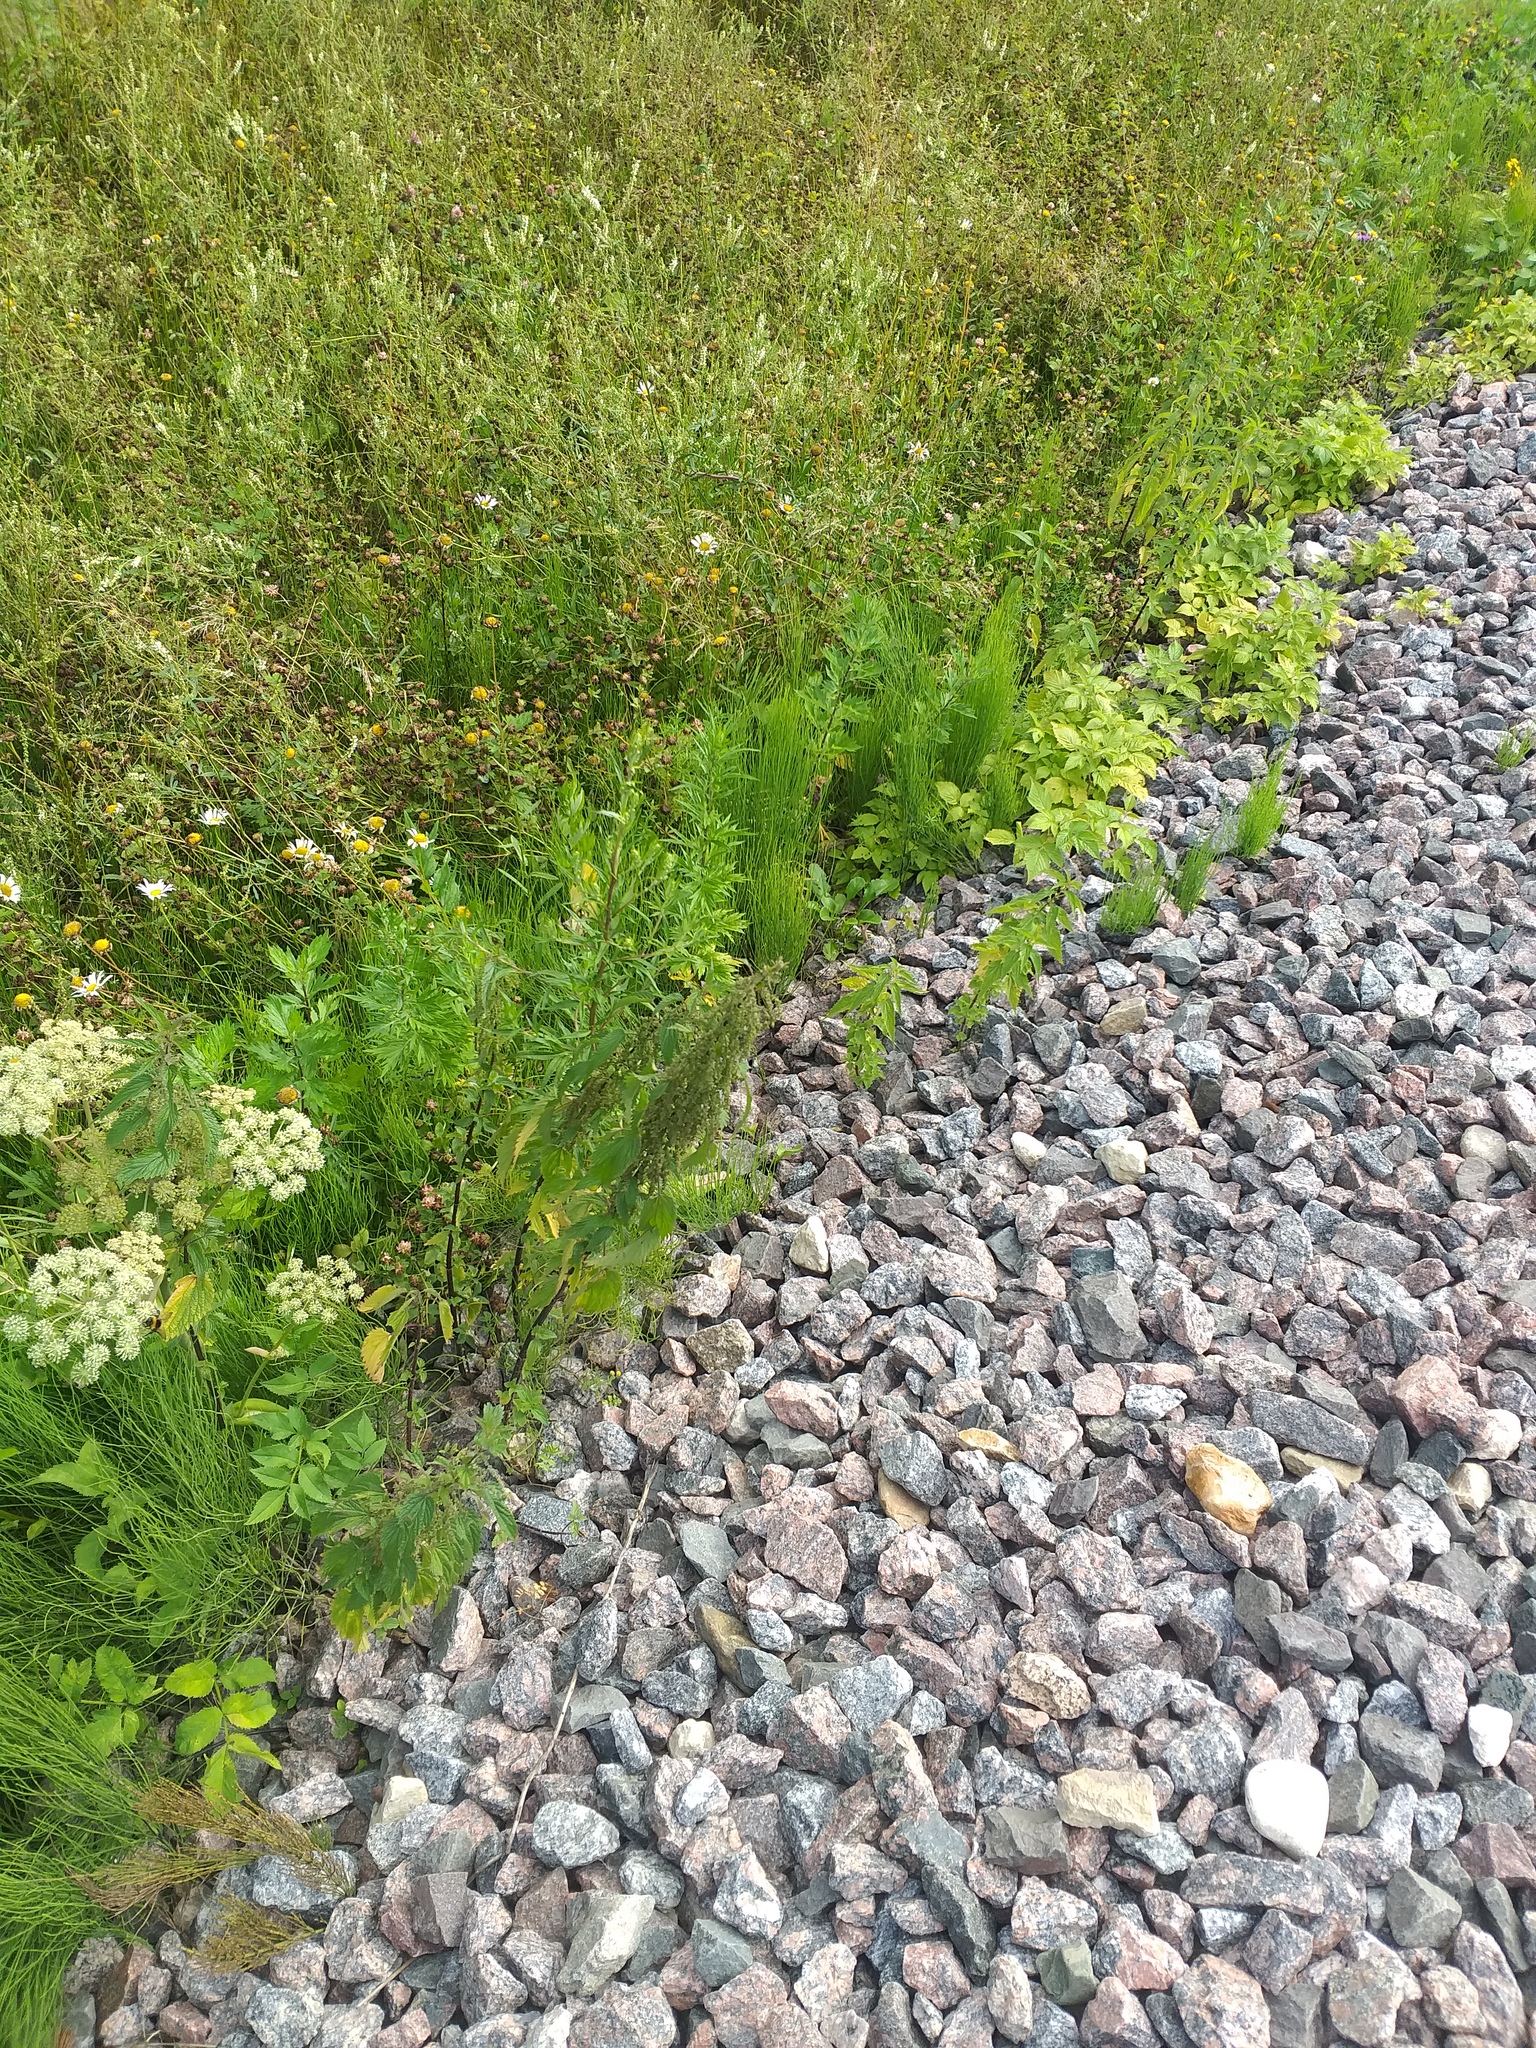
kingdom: Plantae
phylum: Tracheophyta
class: Magnoliopsida
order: Rosales
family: Urticaceae
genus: Urtica
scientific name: Urtica dioica
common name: Common nettle
